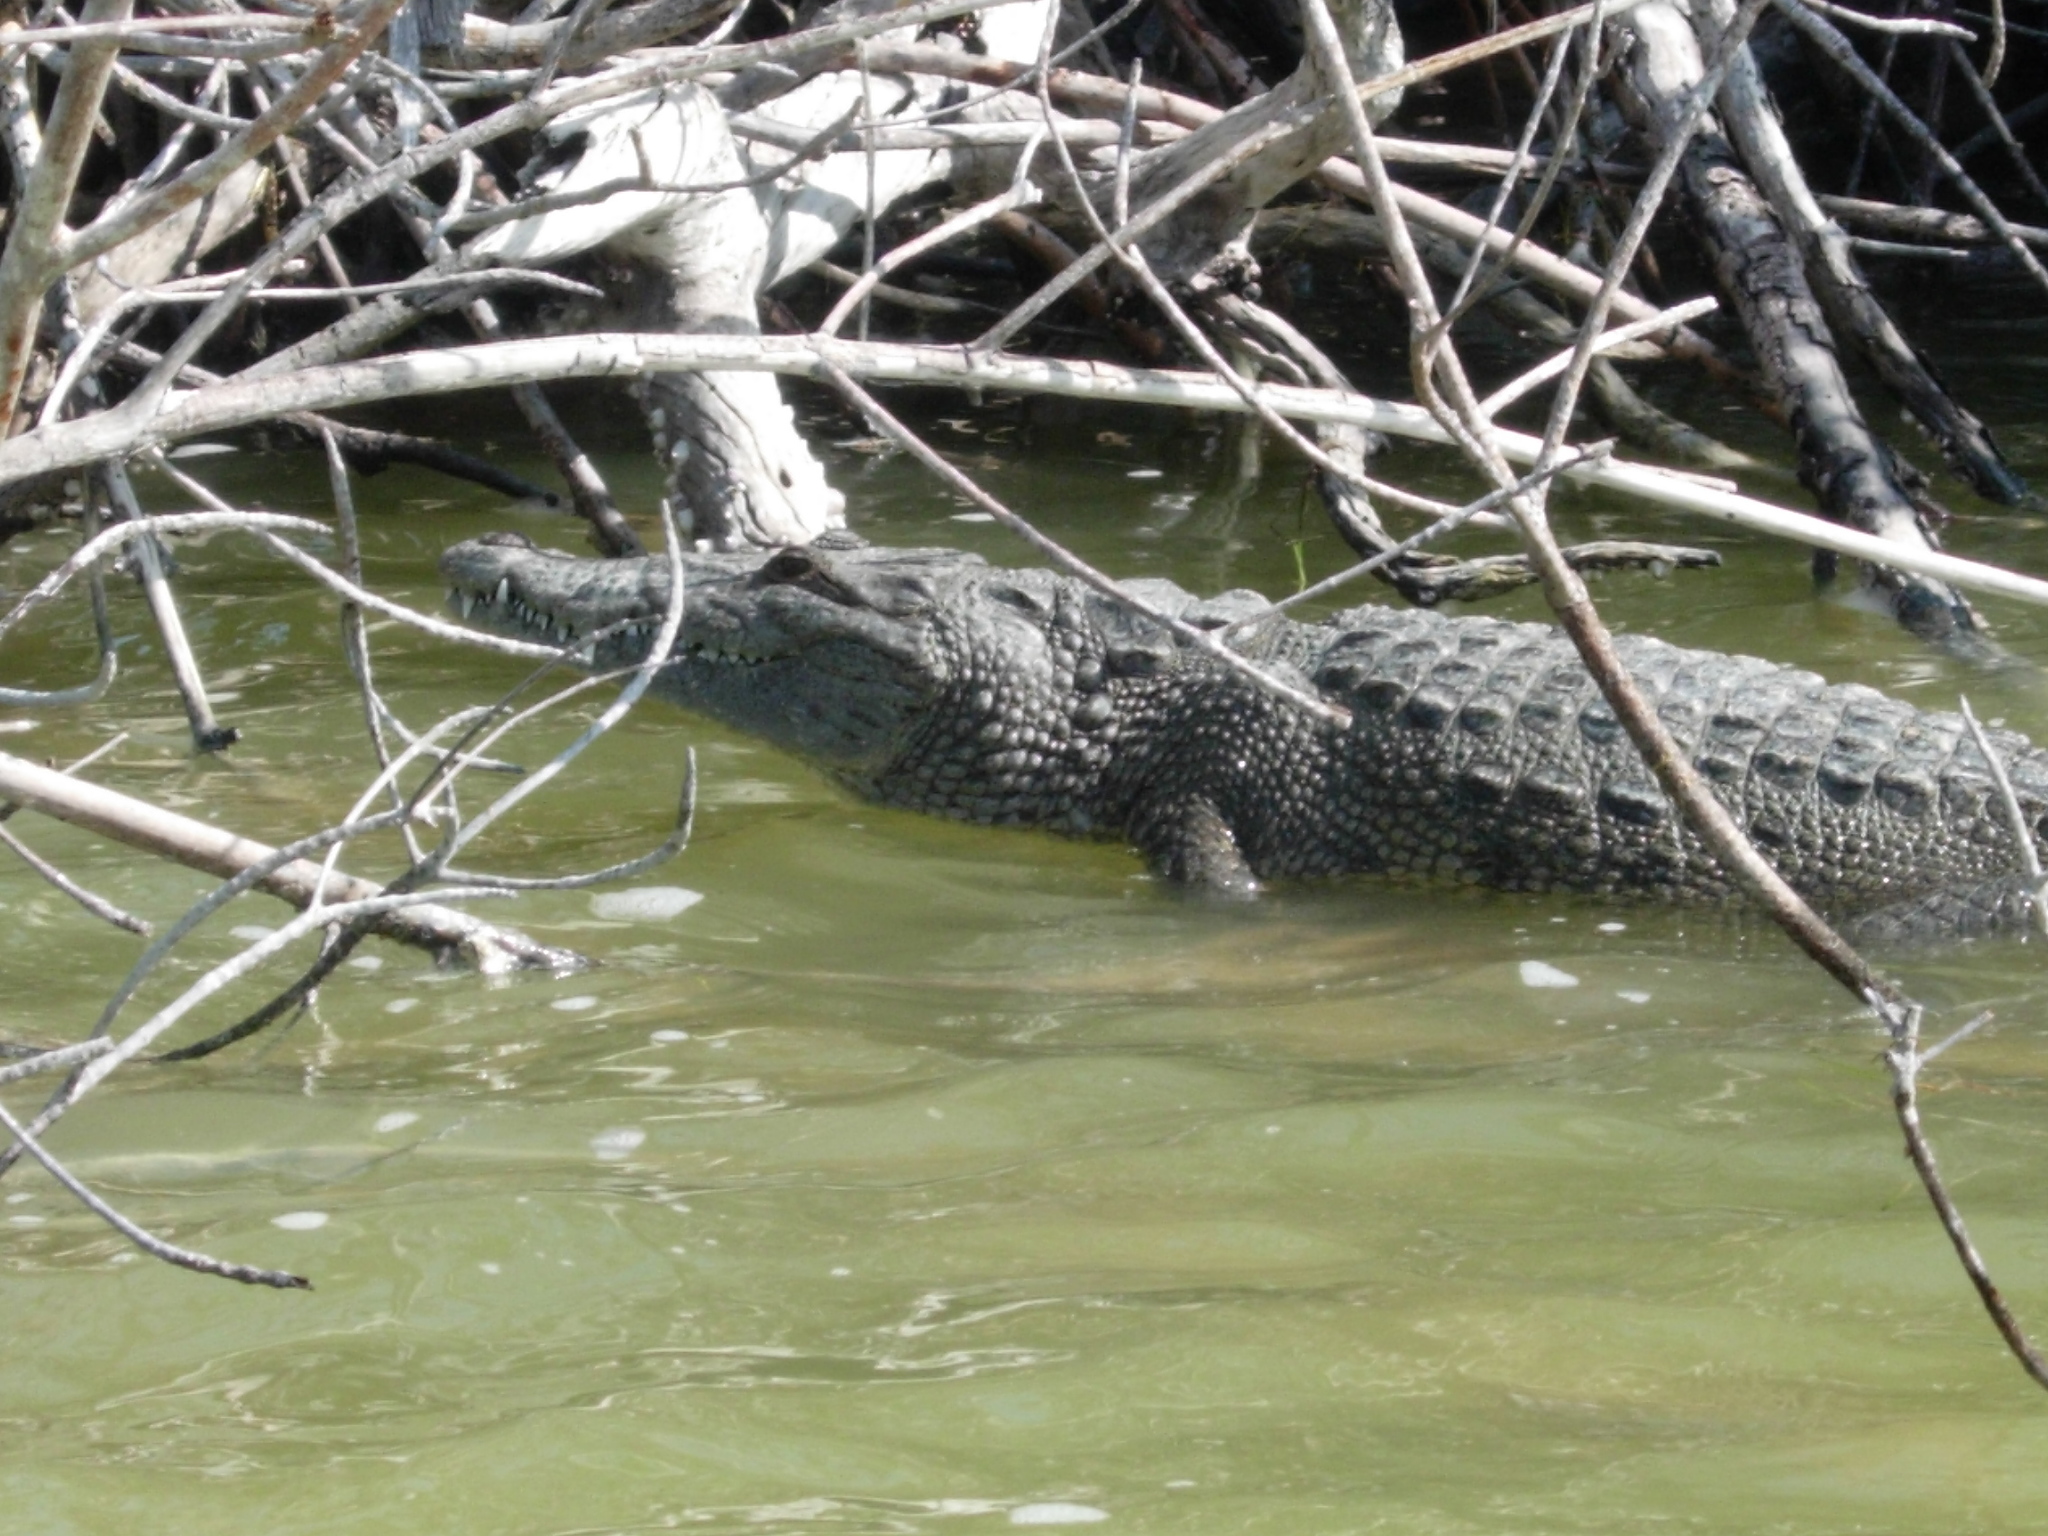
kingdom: Animalia
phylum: Chordata
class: Crocodylia
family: Crocodylidae
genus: Crocodylus
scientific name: Crocodylus moreletii
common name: Morelet's crocodile
